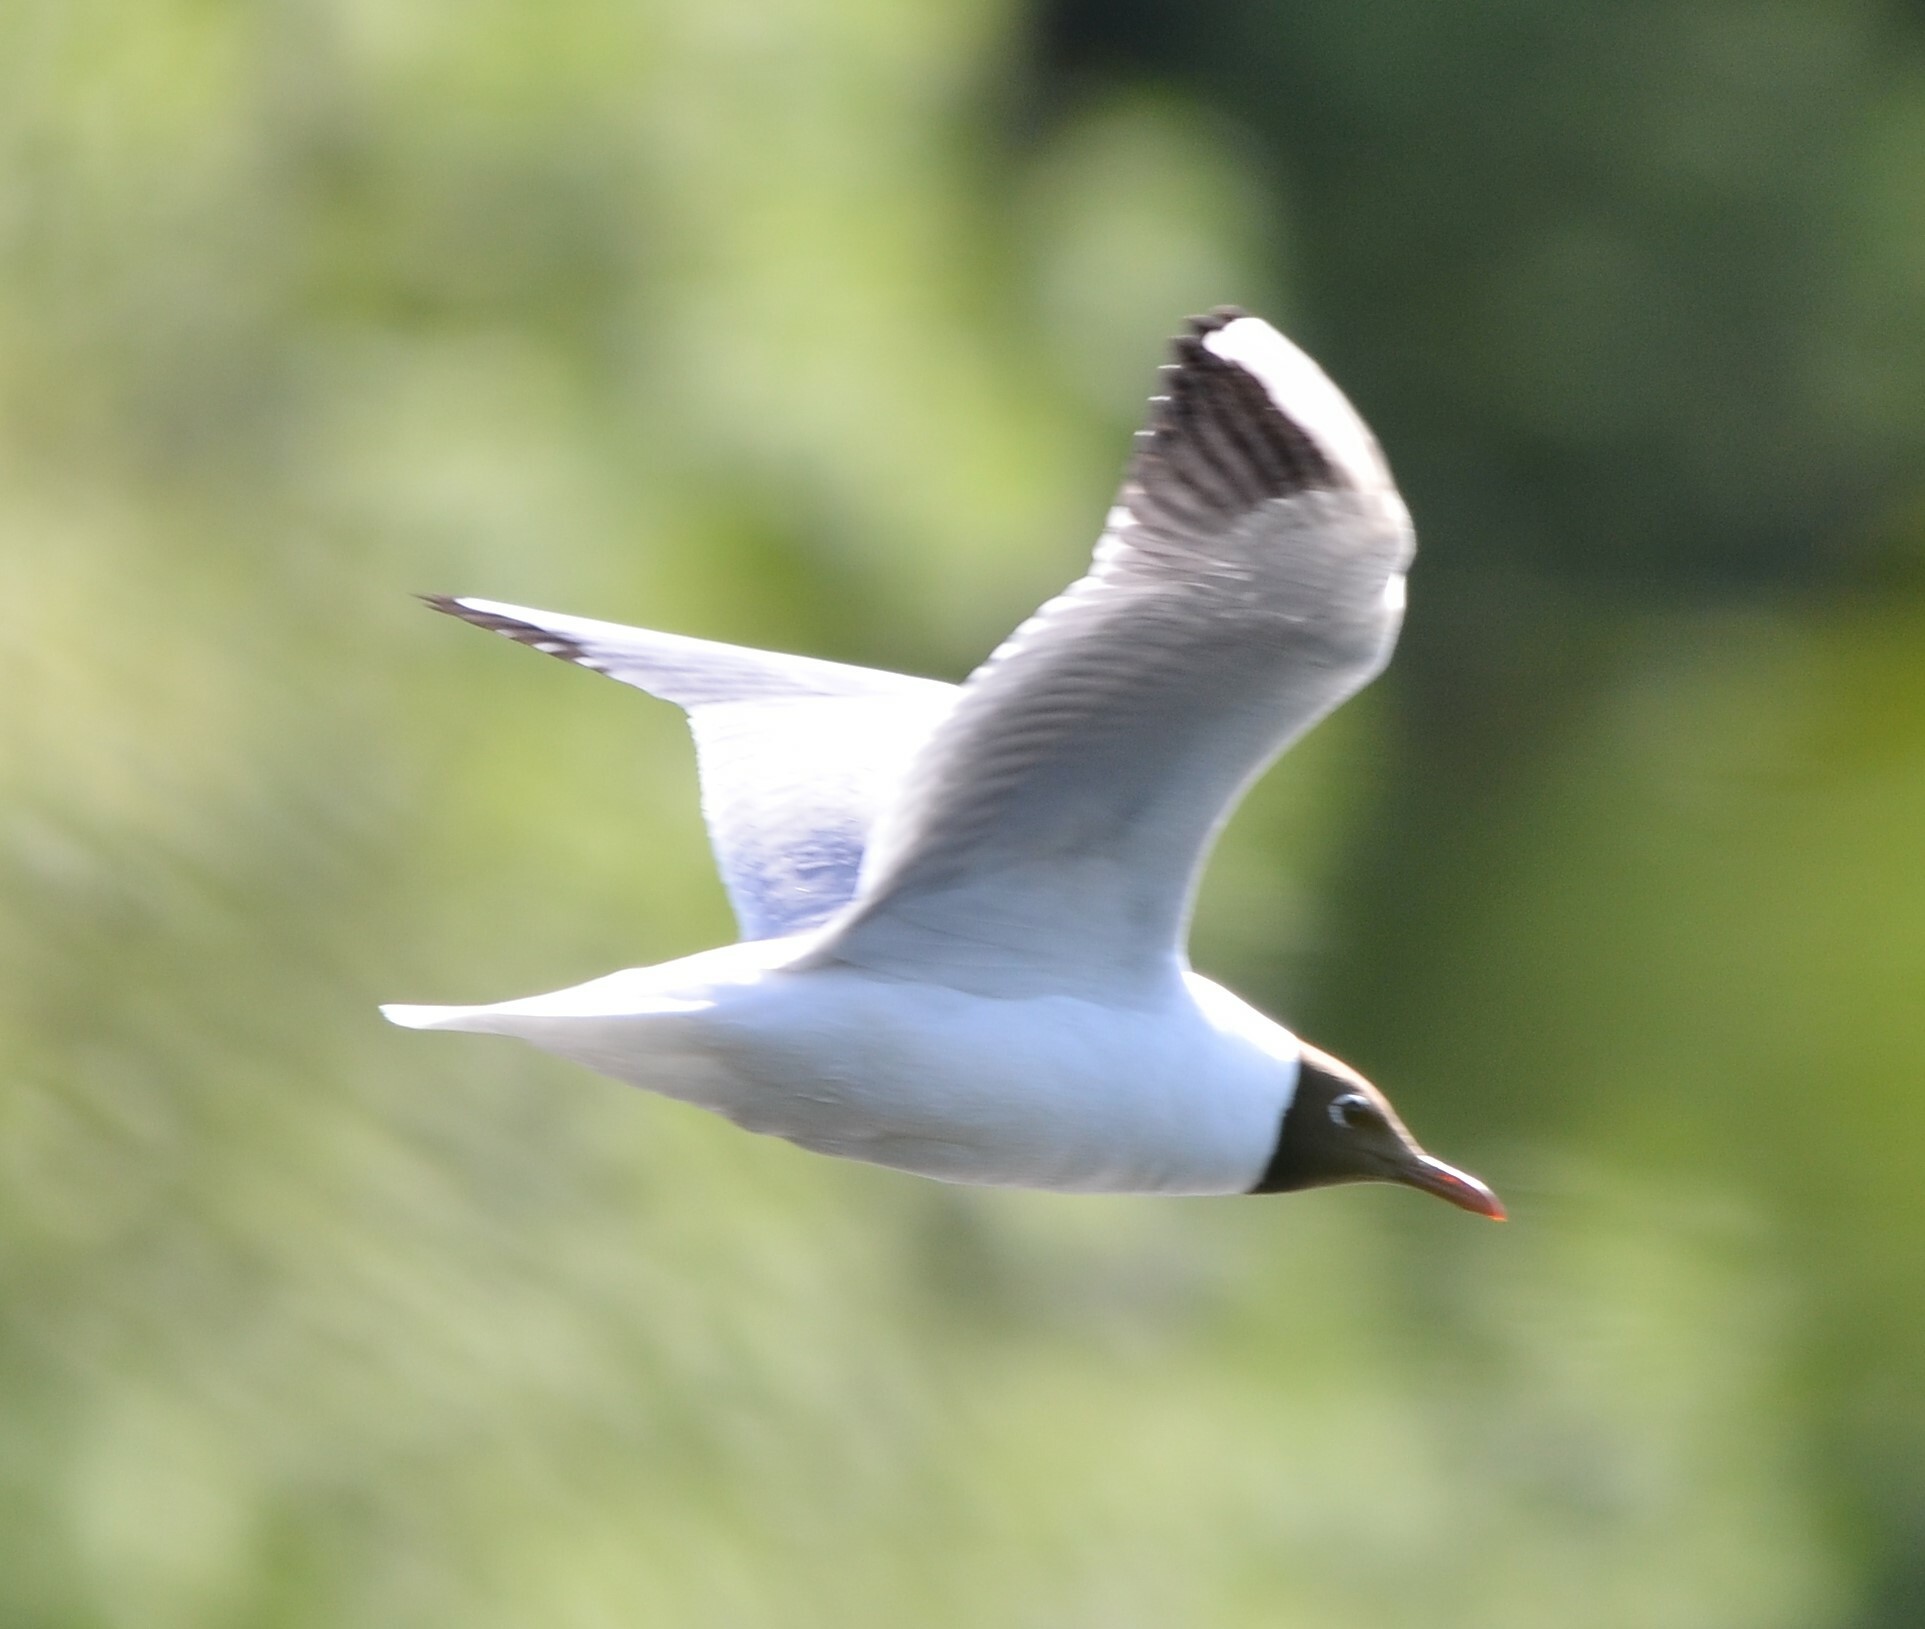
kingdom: Animalia
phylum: Chordata
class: Aves
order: Charadriiformes
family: Laridae
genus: Chroicocephalus
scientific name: Chroicocephalus ridibundus
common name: Black-headed gull
